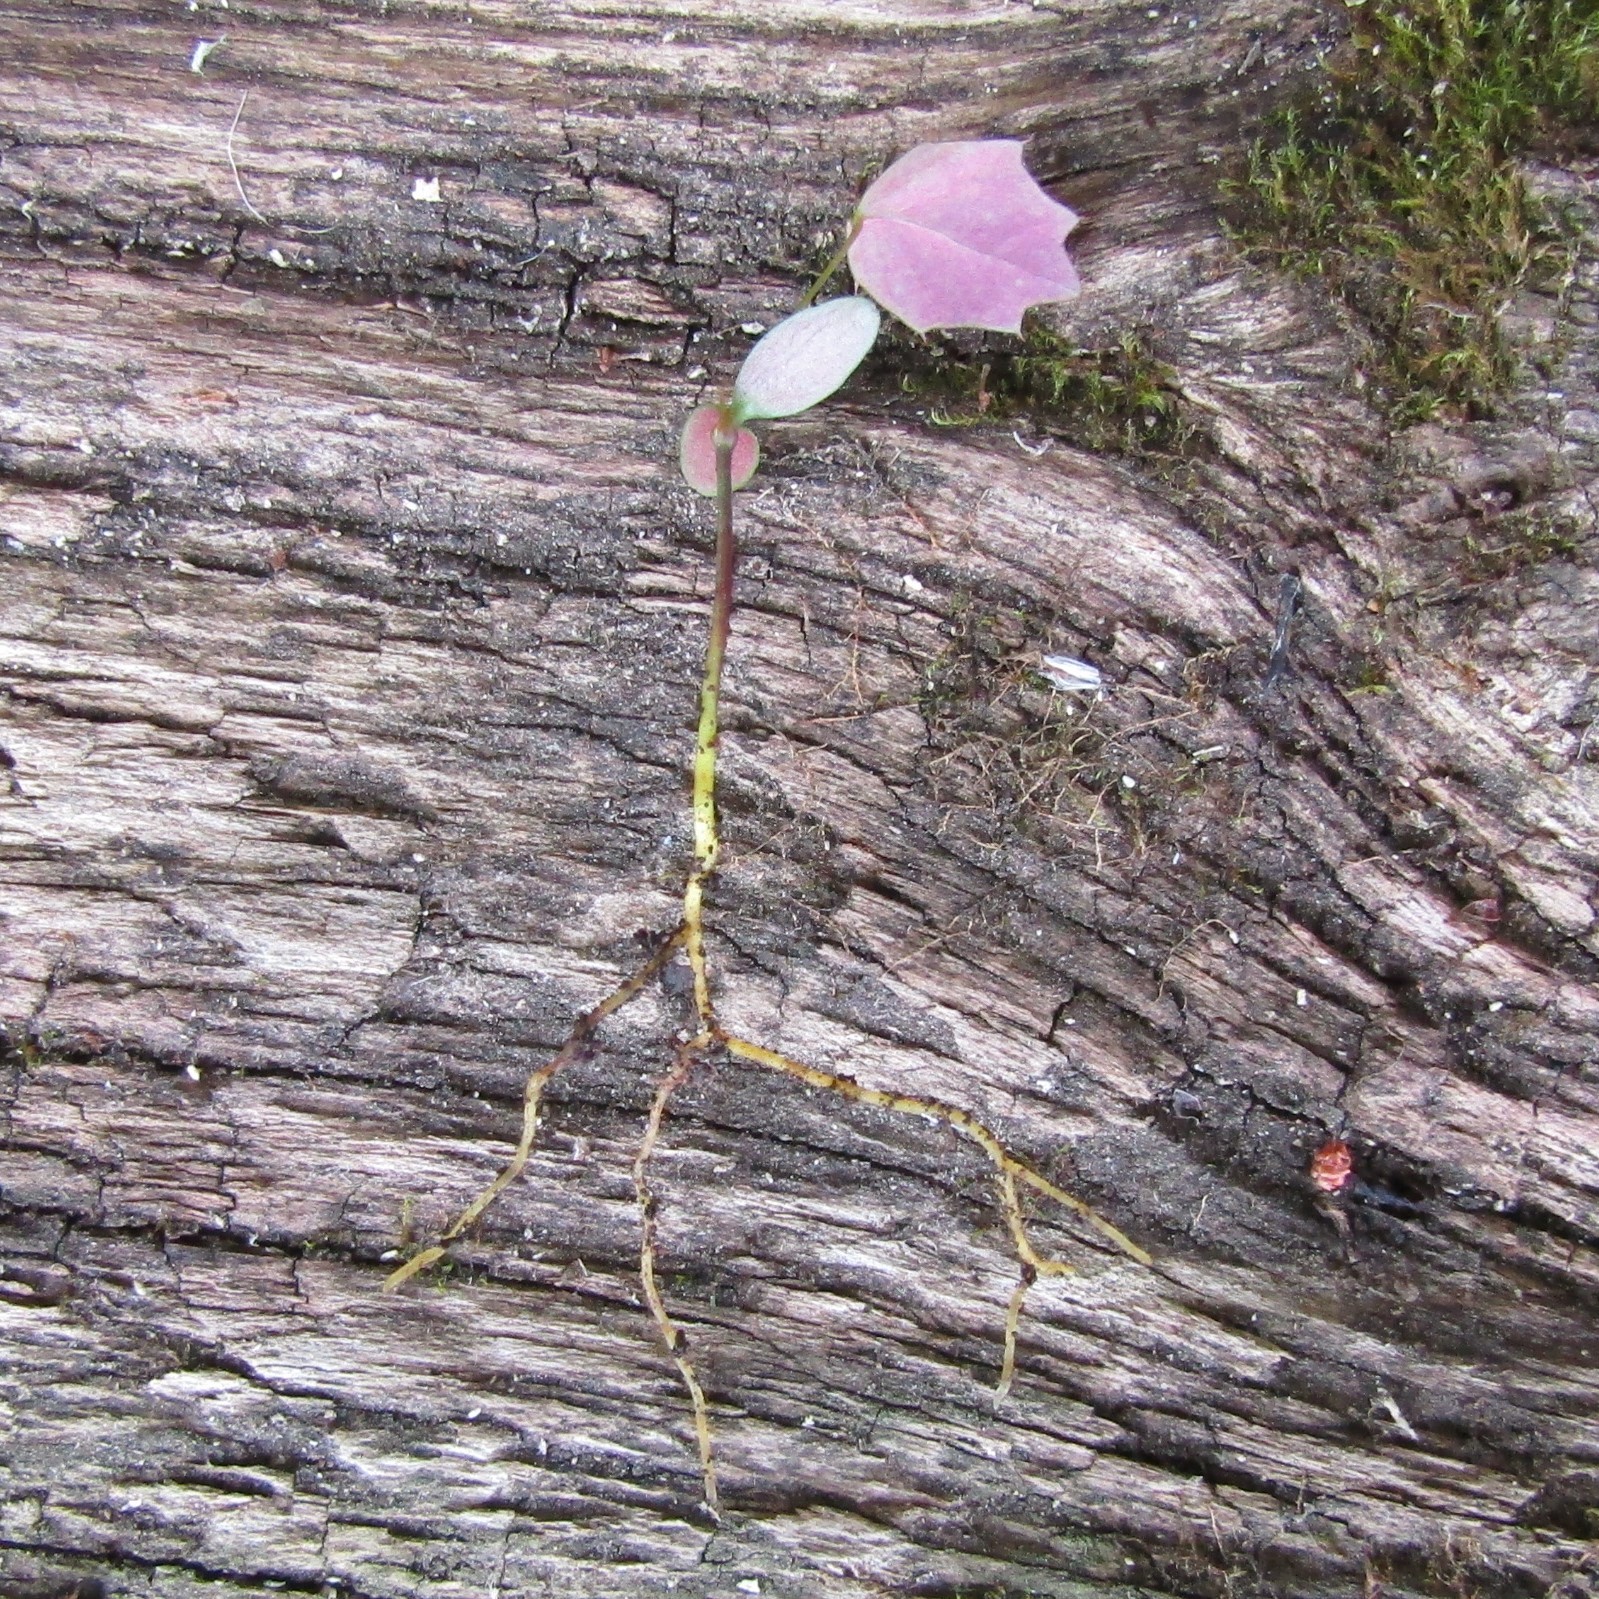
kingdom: Plantae
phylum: Tracheophyta
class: Magnoliopsida
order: Ranunculales
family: Berberidaceae
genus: Berberis
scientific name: Berberis darwinii
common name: Darwin's barberry
